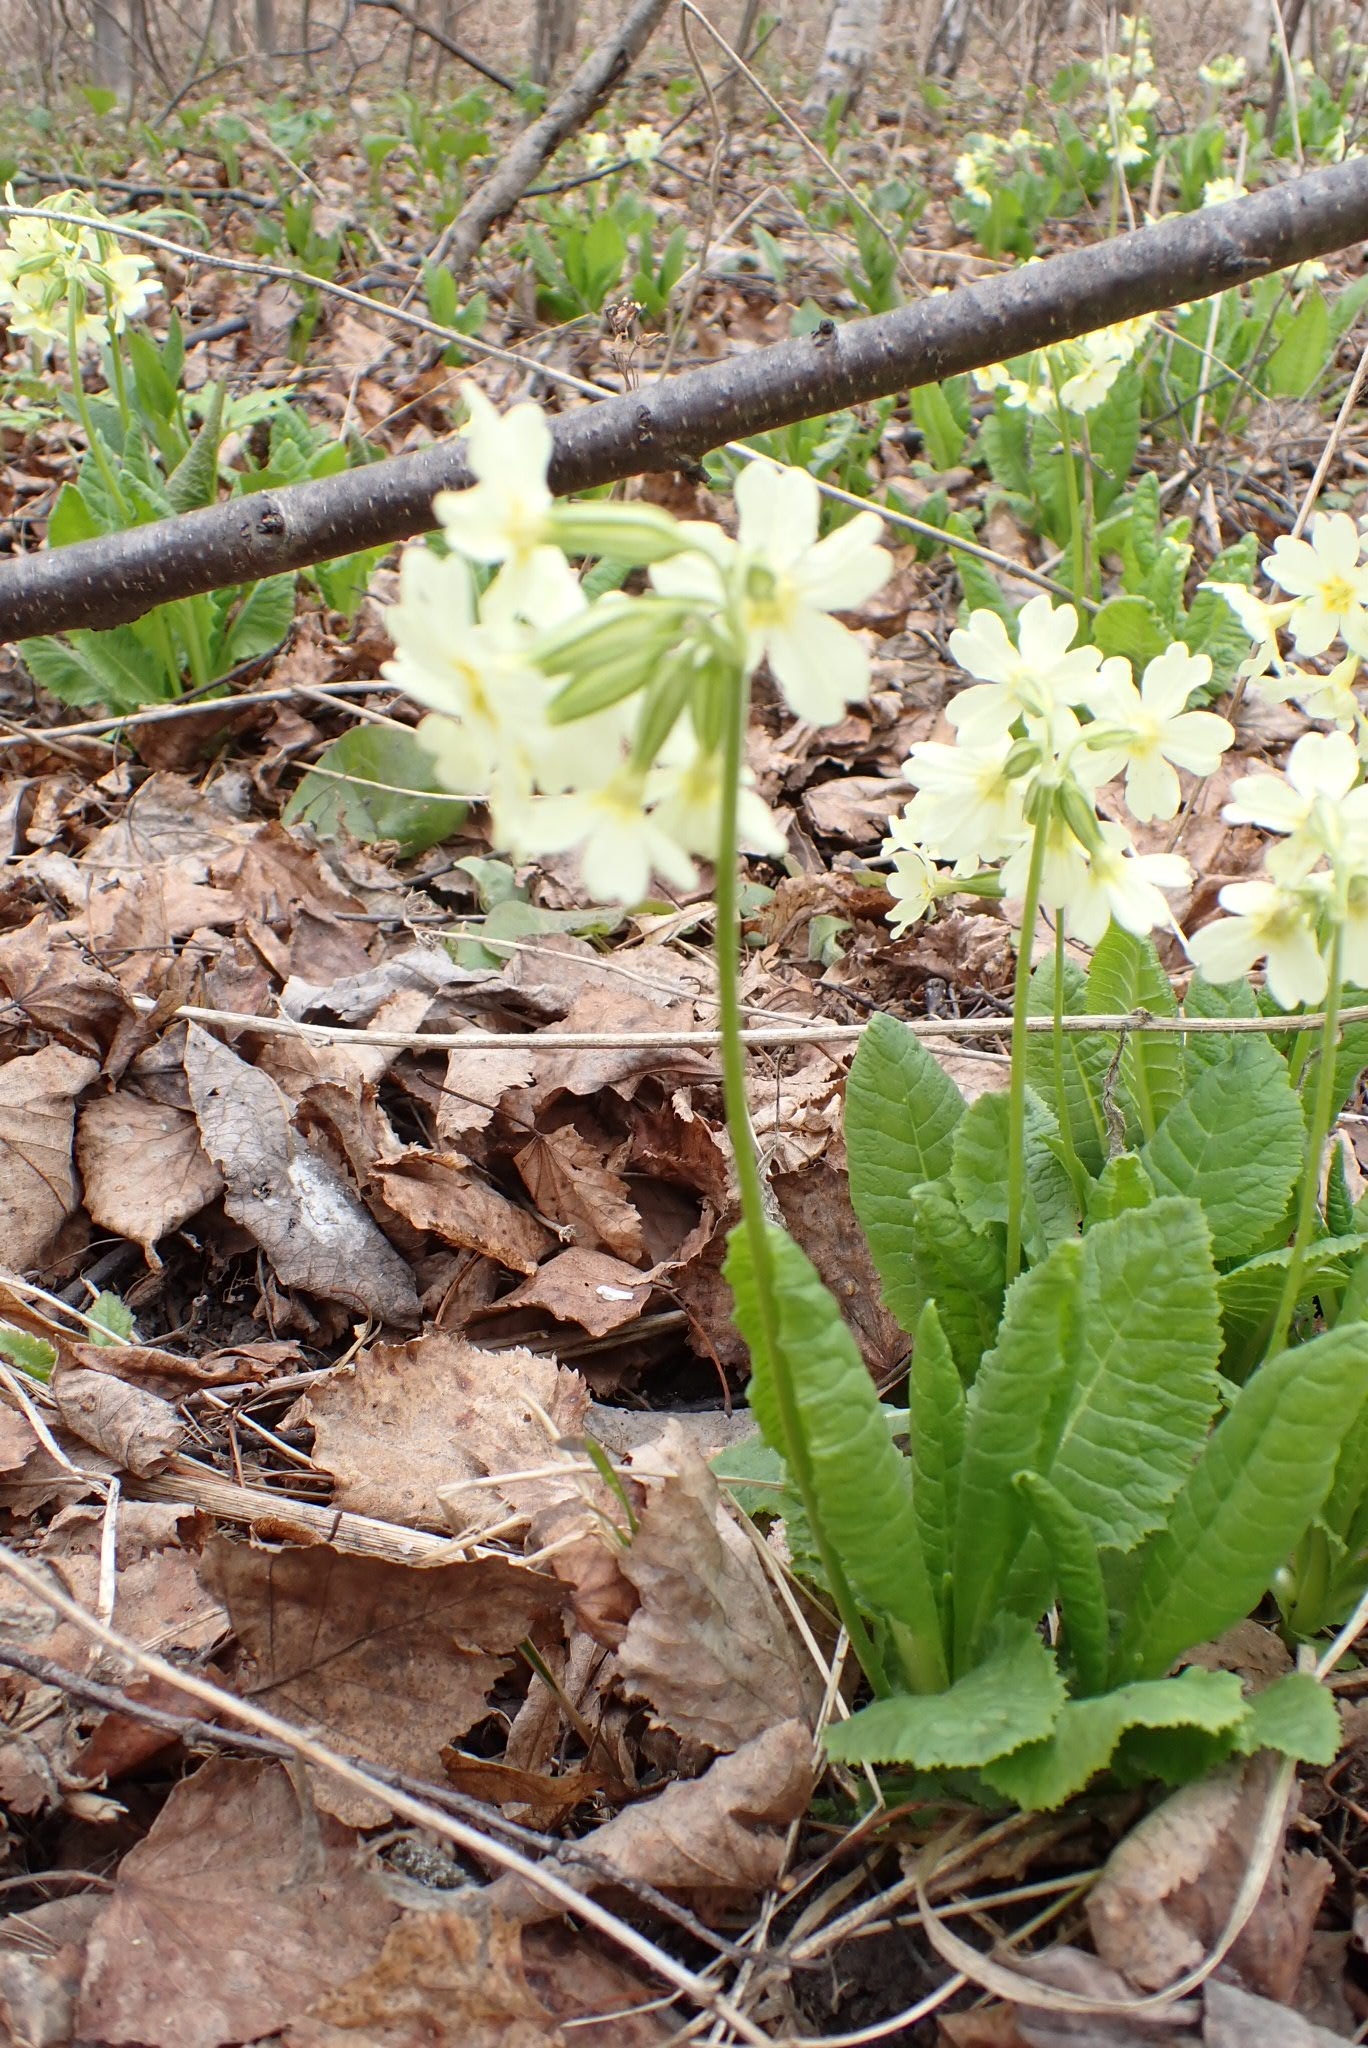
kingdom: Plantae
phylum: Tracheophyta
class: Magnoliopsida
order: Ericales
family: Primulaceae
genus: Primula
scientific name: Primula elatior
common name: Oxlip
